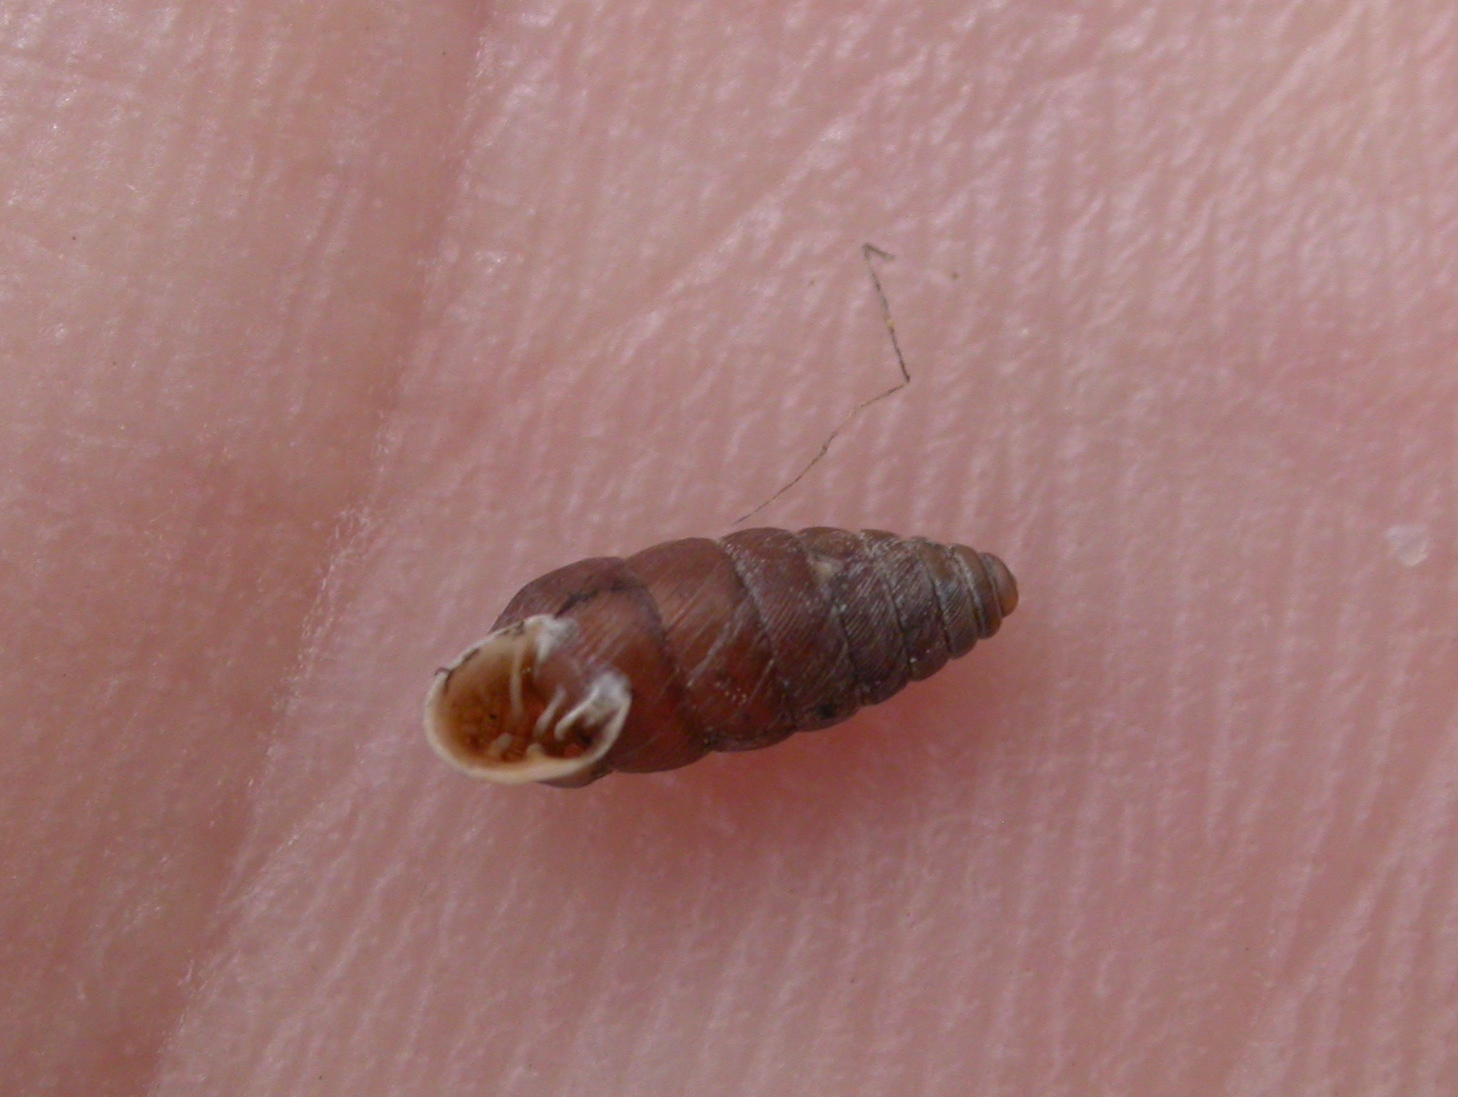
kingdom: Animalia
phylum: Mollusca
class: Gastropoda
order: Stylommatophora
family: Chondrinidae
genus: Abida
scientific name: Abida secale
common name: Large chrysalis snail
